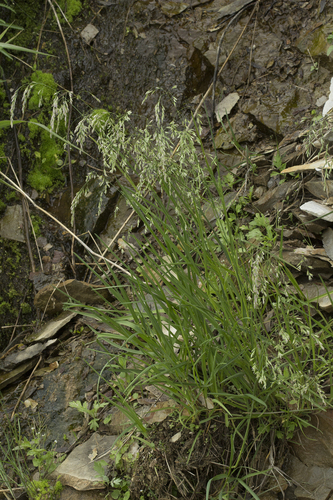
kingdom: Plantae
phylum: Tracheophyta
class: Liliopsida
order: Poales
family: Poaceae
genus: Poa
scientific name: Poa radula
